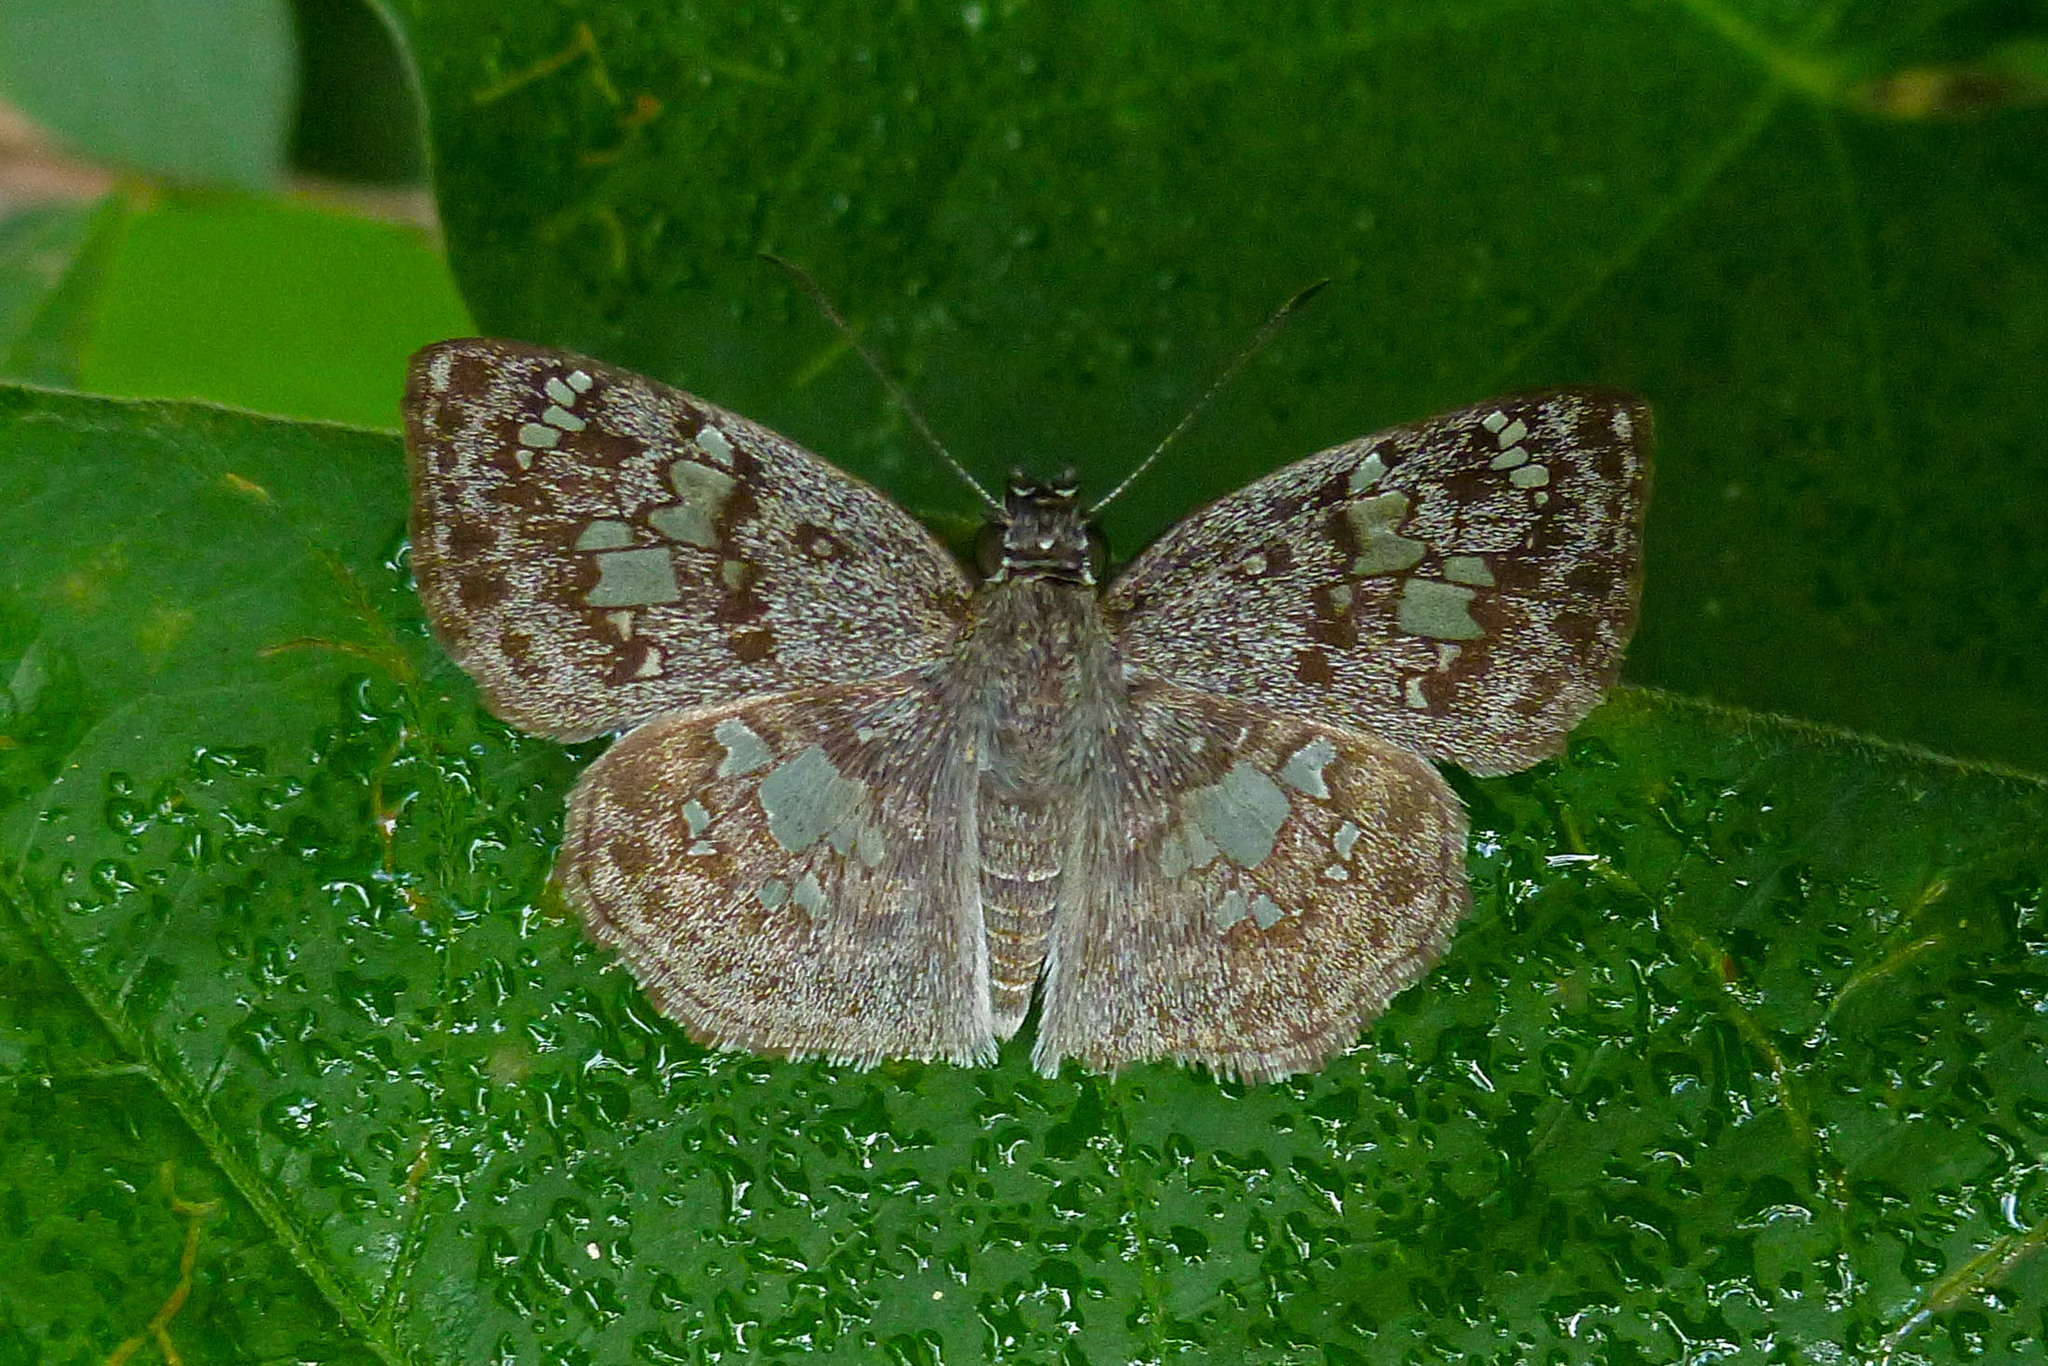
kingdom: Animalia
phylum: Arthropoda
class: Insecta
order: Lepidoptera
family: Hesperiidae
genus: Xenophanes
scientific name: Xenophanes tryxus
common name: Glassy-winged skipper
